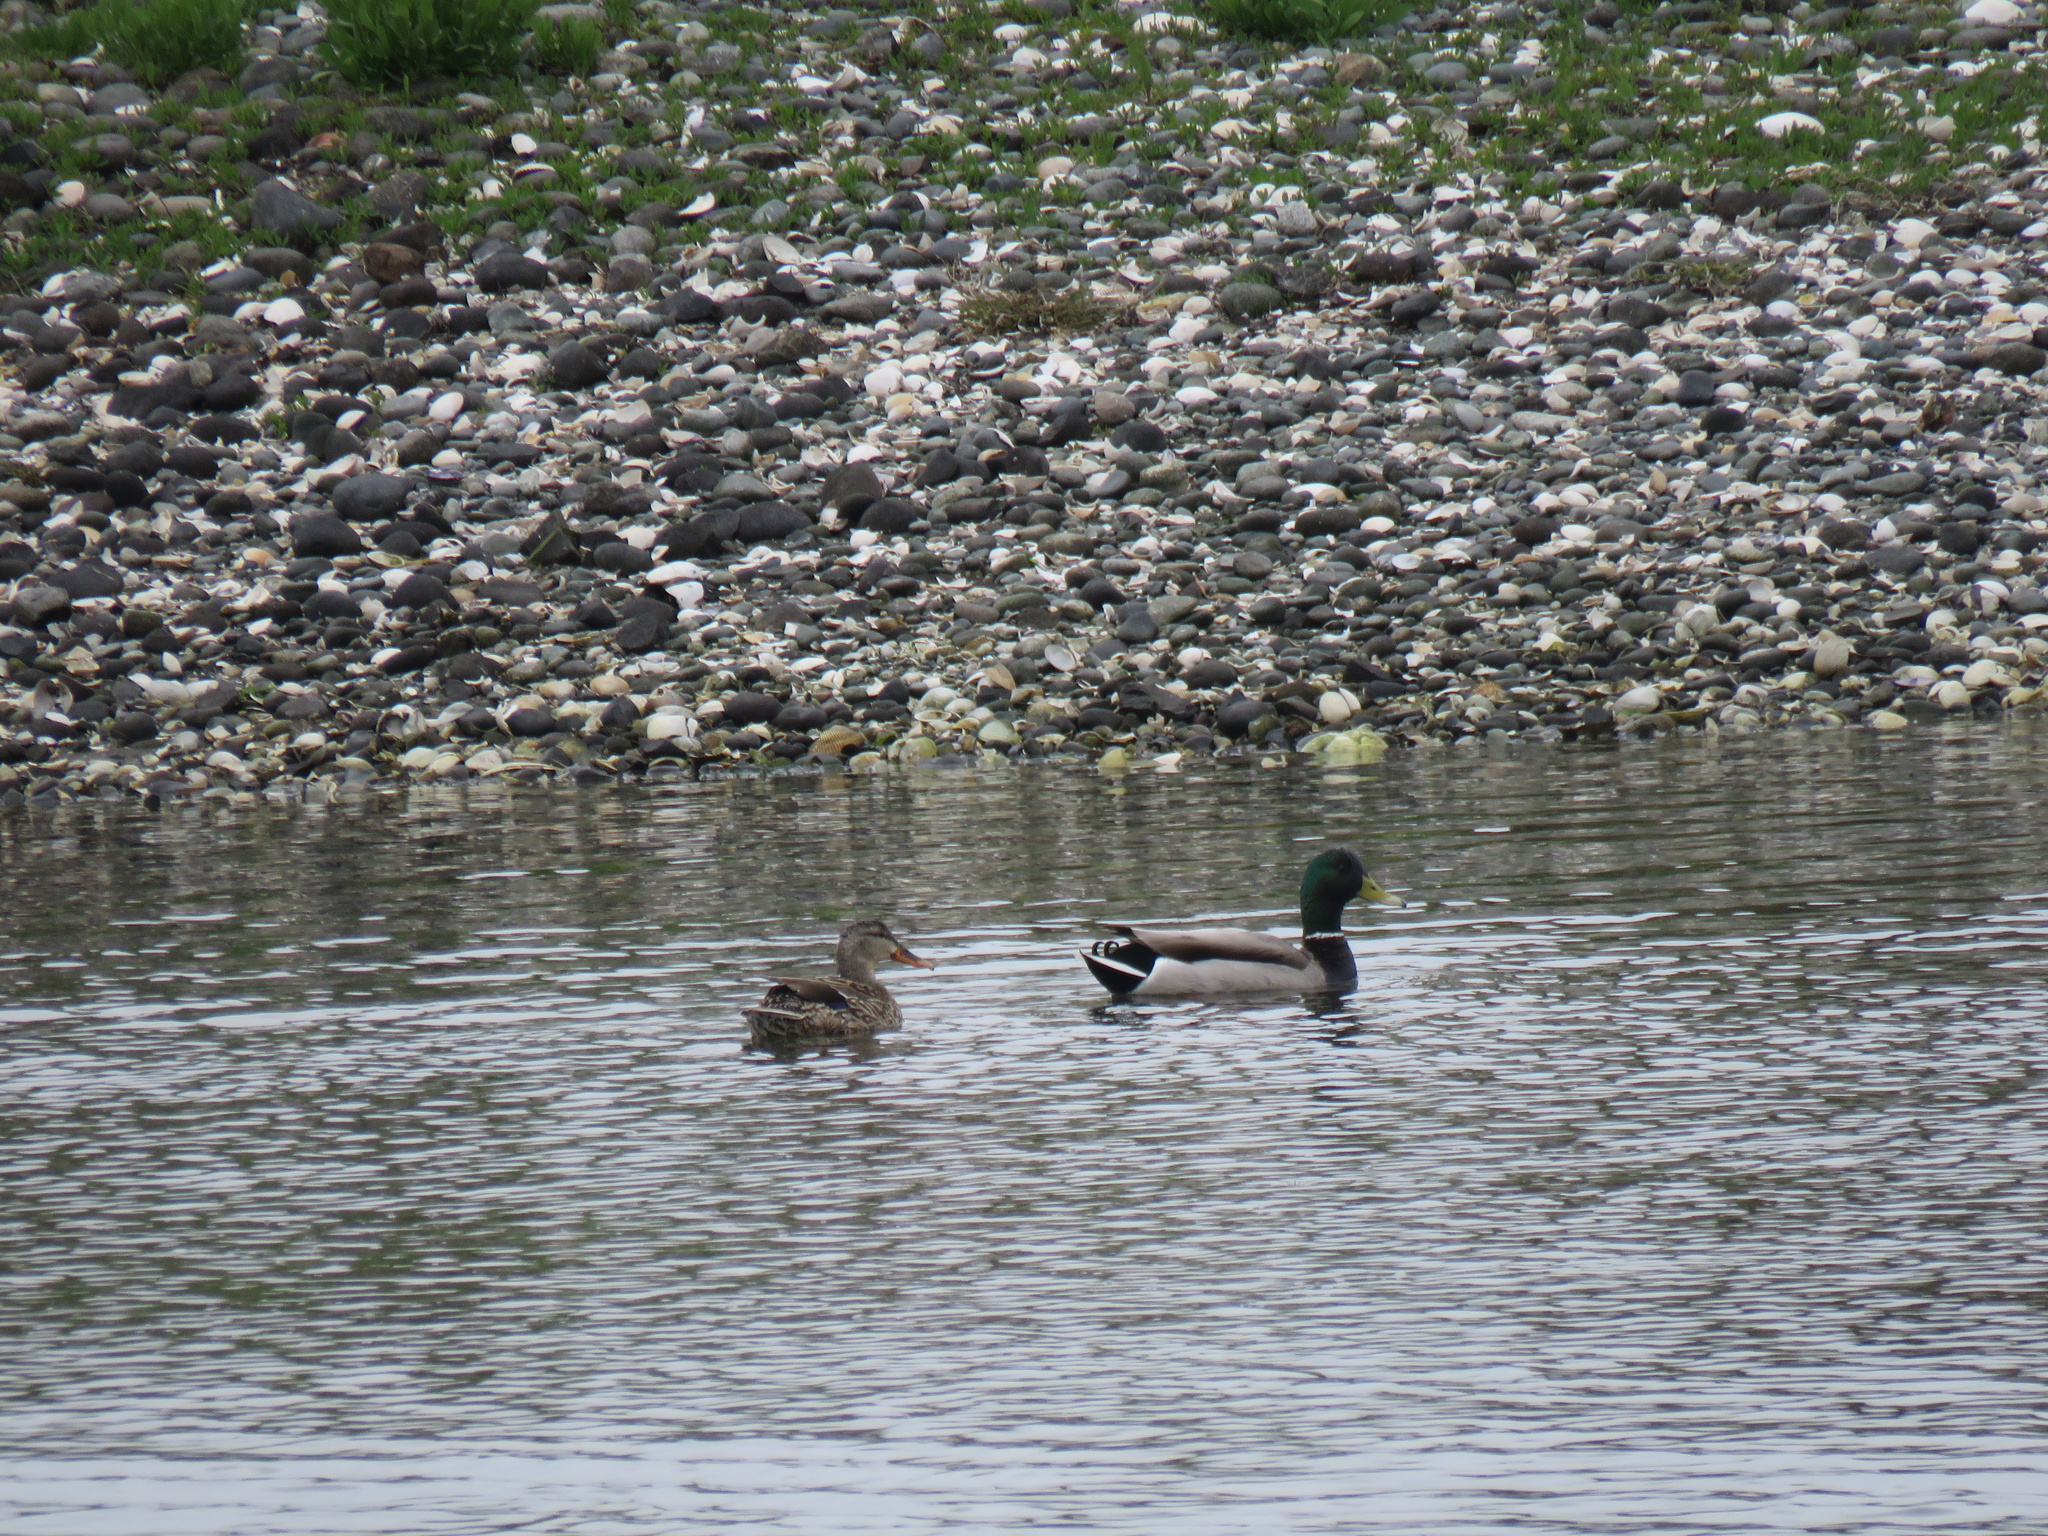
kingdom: Animalia
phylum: Chordata
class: Aves
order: Anseriformes
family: Anatidae
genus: Anas
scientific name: Anas platyrhynchos
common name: Mallard
